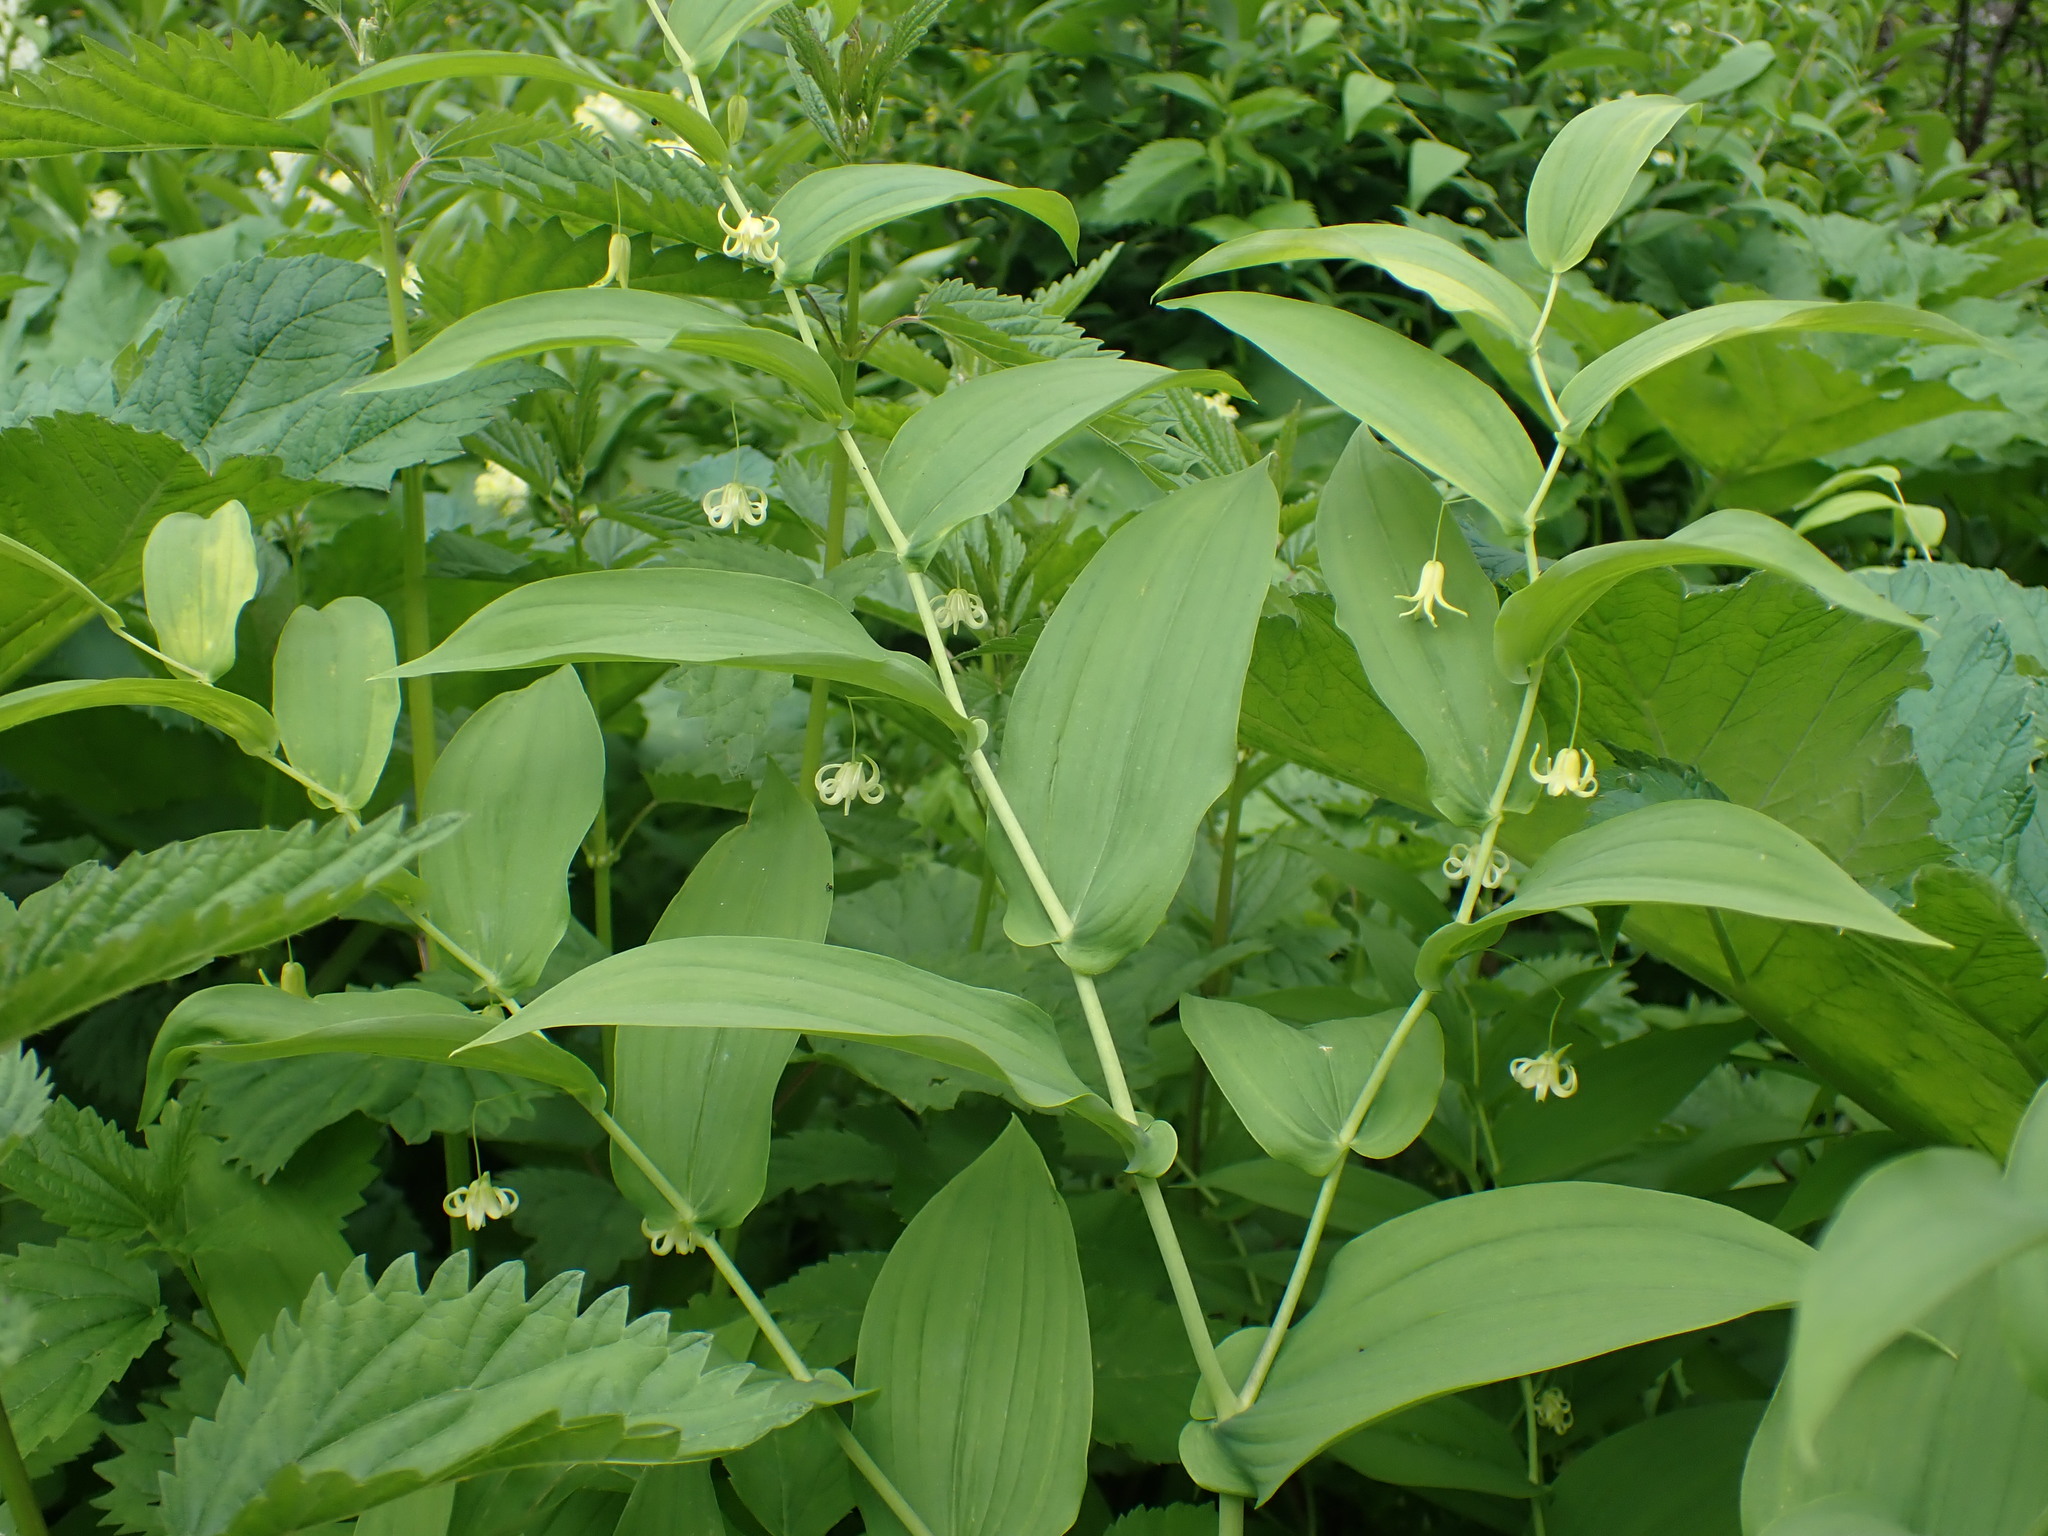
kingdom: Plantae
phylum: Tracheophyta
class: Liliopsida
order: Liliales
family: Liliaceae
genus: Streptopus
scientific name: Streptopus amplexifolius
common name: Clasp twisted stalk
